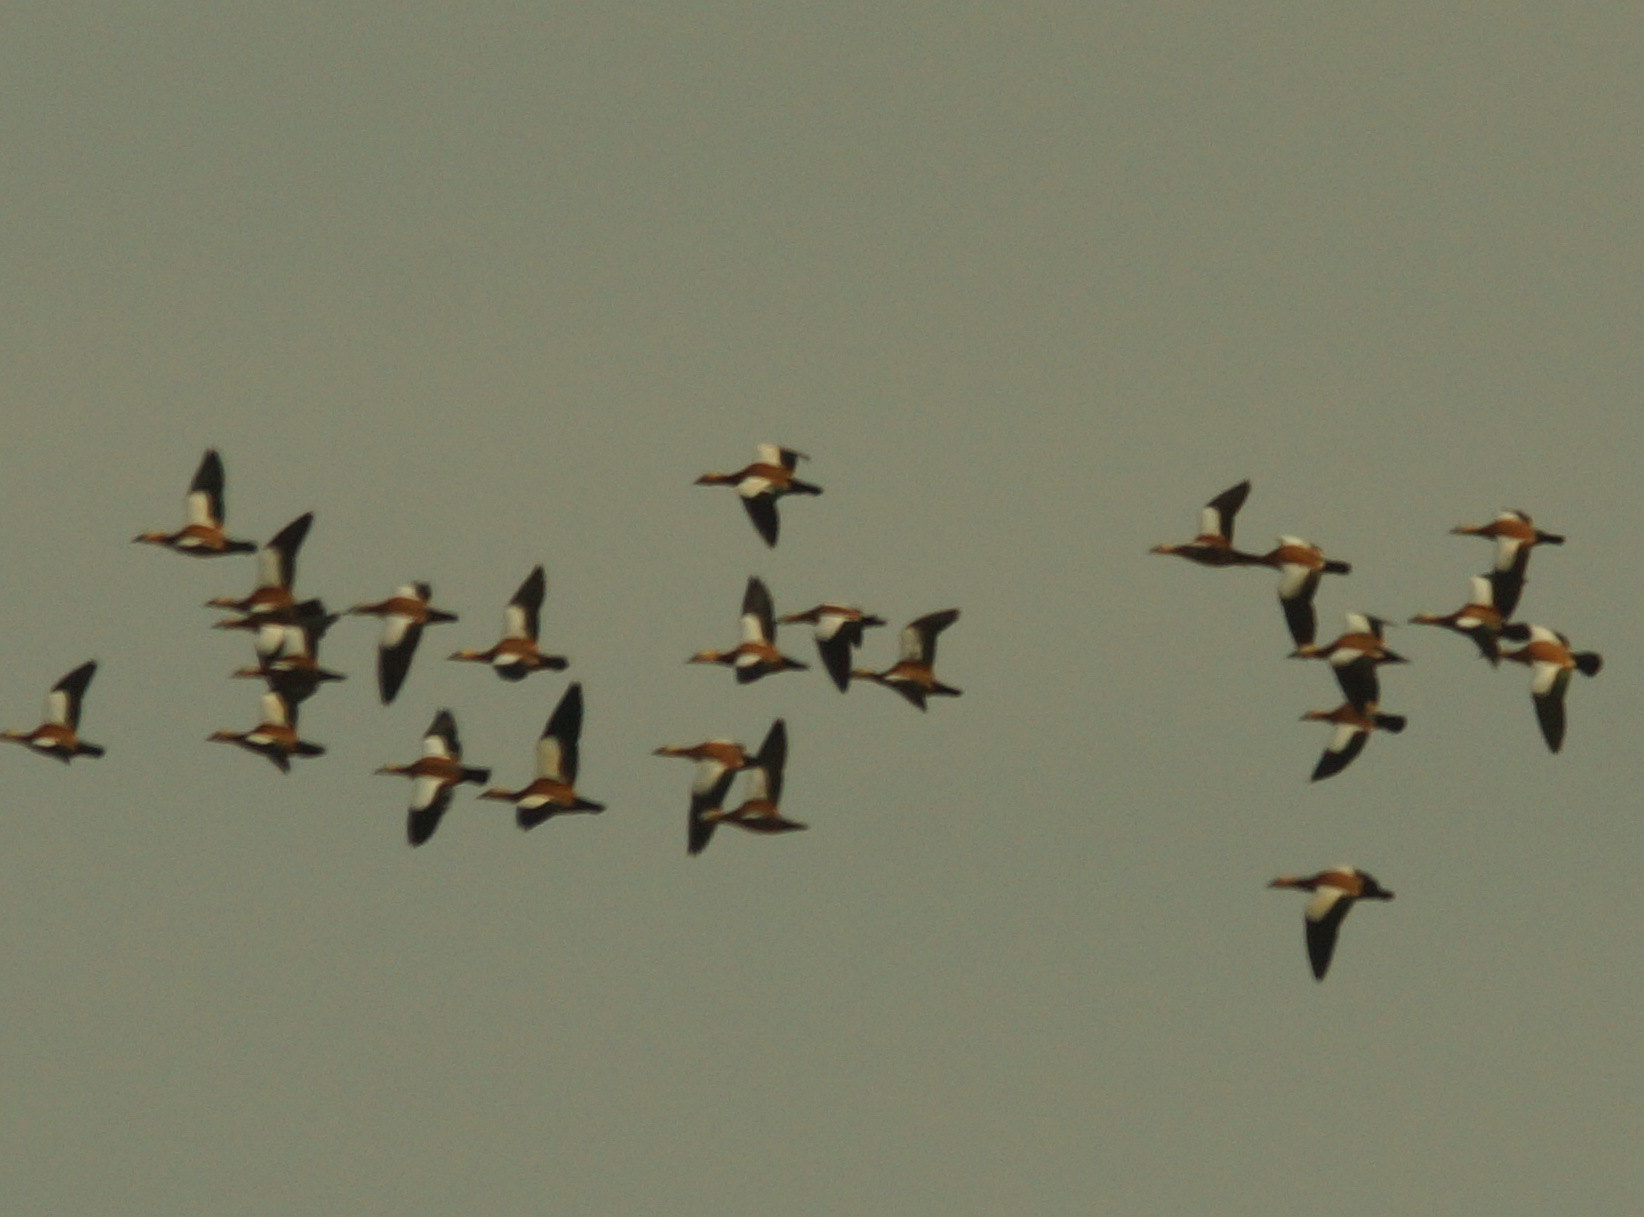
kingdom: Animalia
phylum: Chordata
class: Aves
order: Anseriformes
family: Anatidae
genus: Tadorna
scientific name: Tadorna ferruginea
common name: Ruddy shelduck
